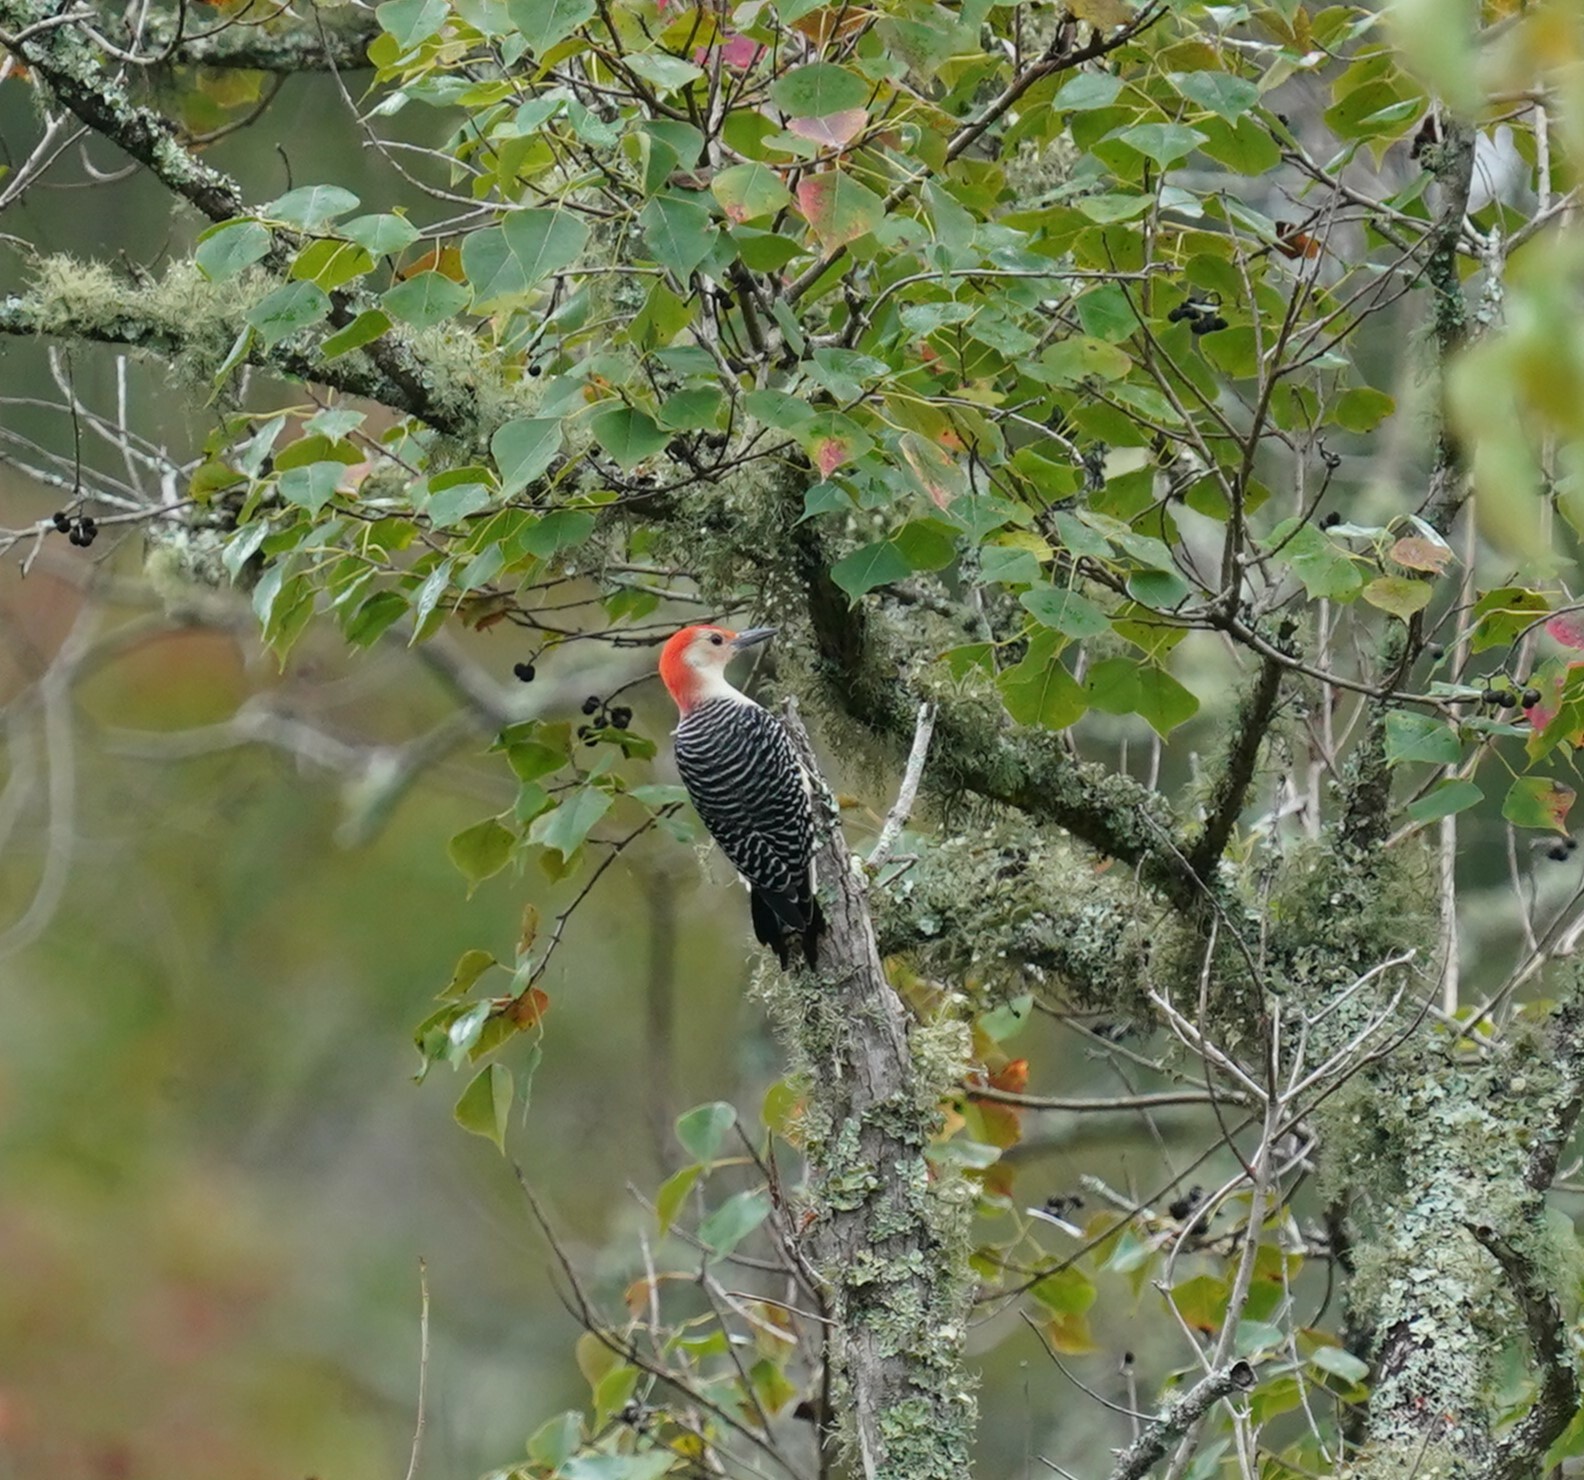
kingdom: Animalia
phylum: Chordata
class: Aves
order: Piciformes
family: Picidae
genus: Melanerpes
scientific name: Melanerpes carolinus
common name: Red-bellied woodpecker
